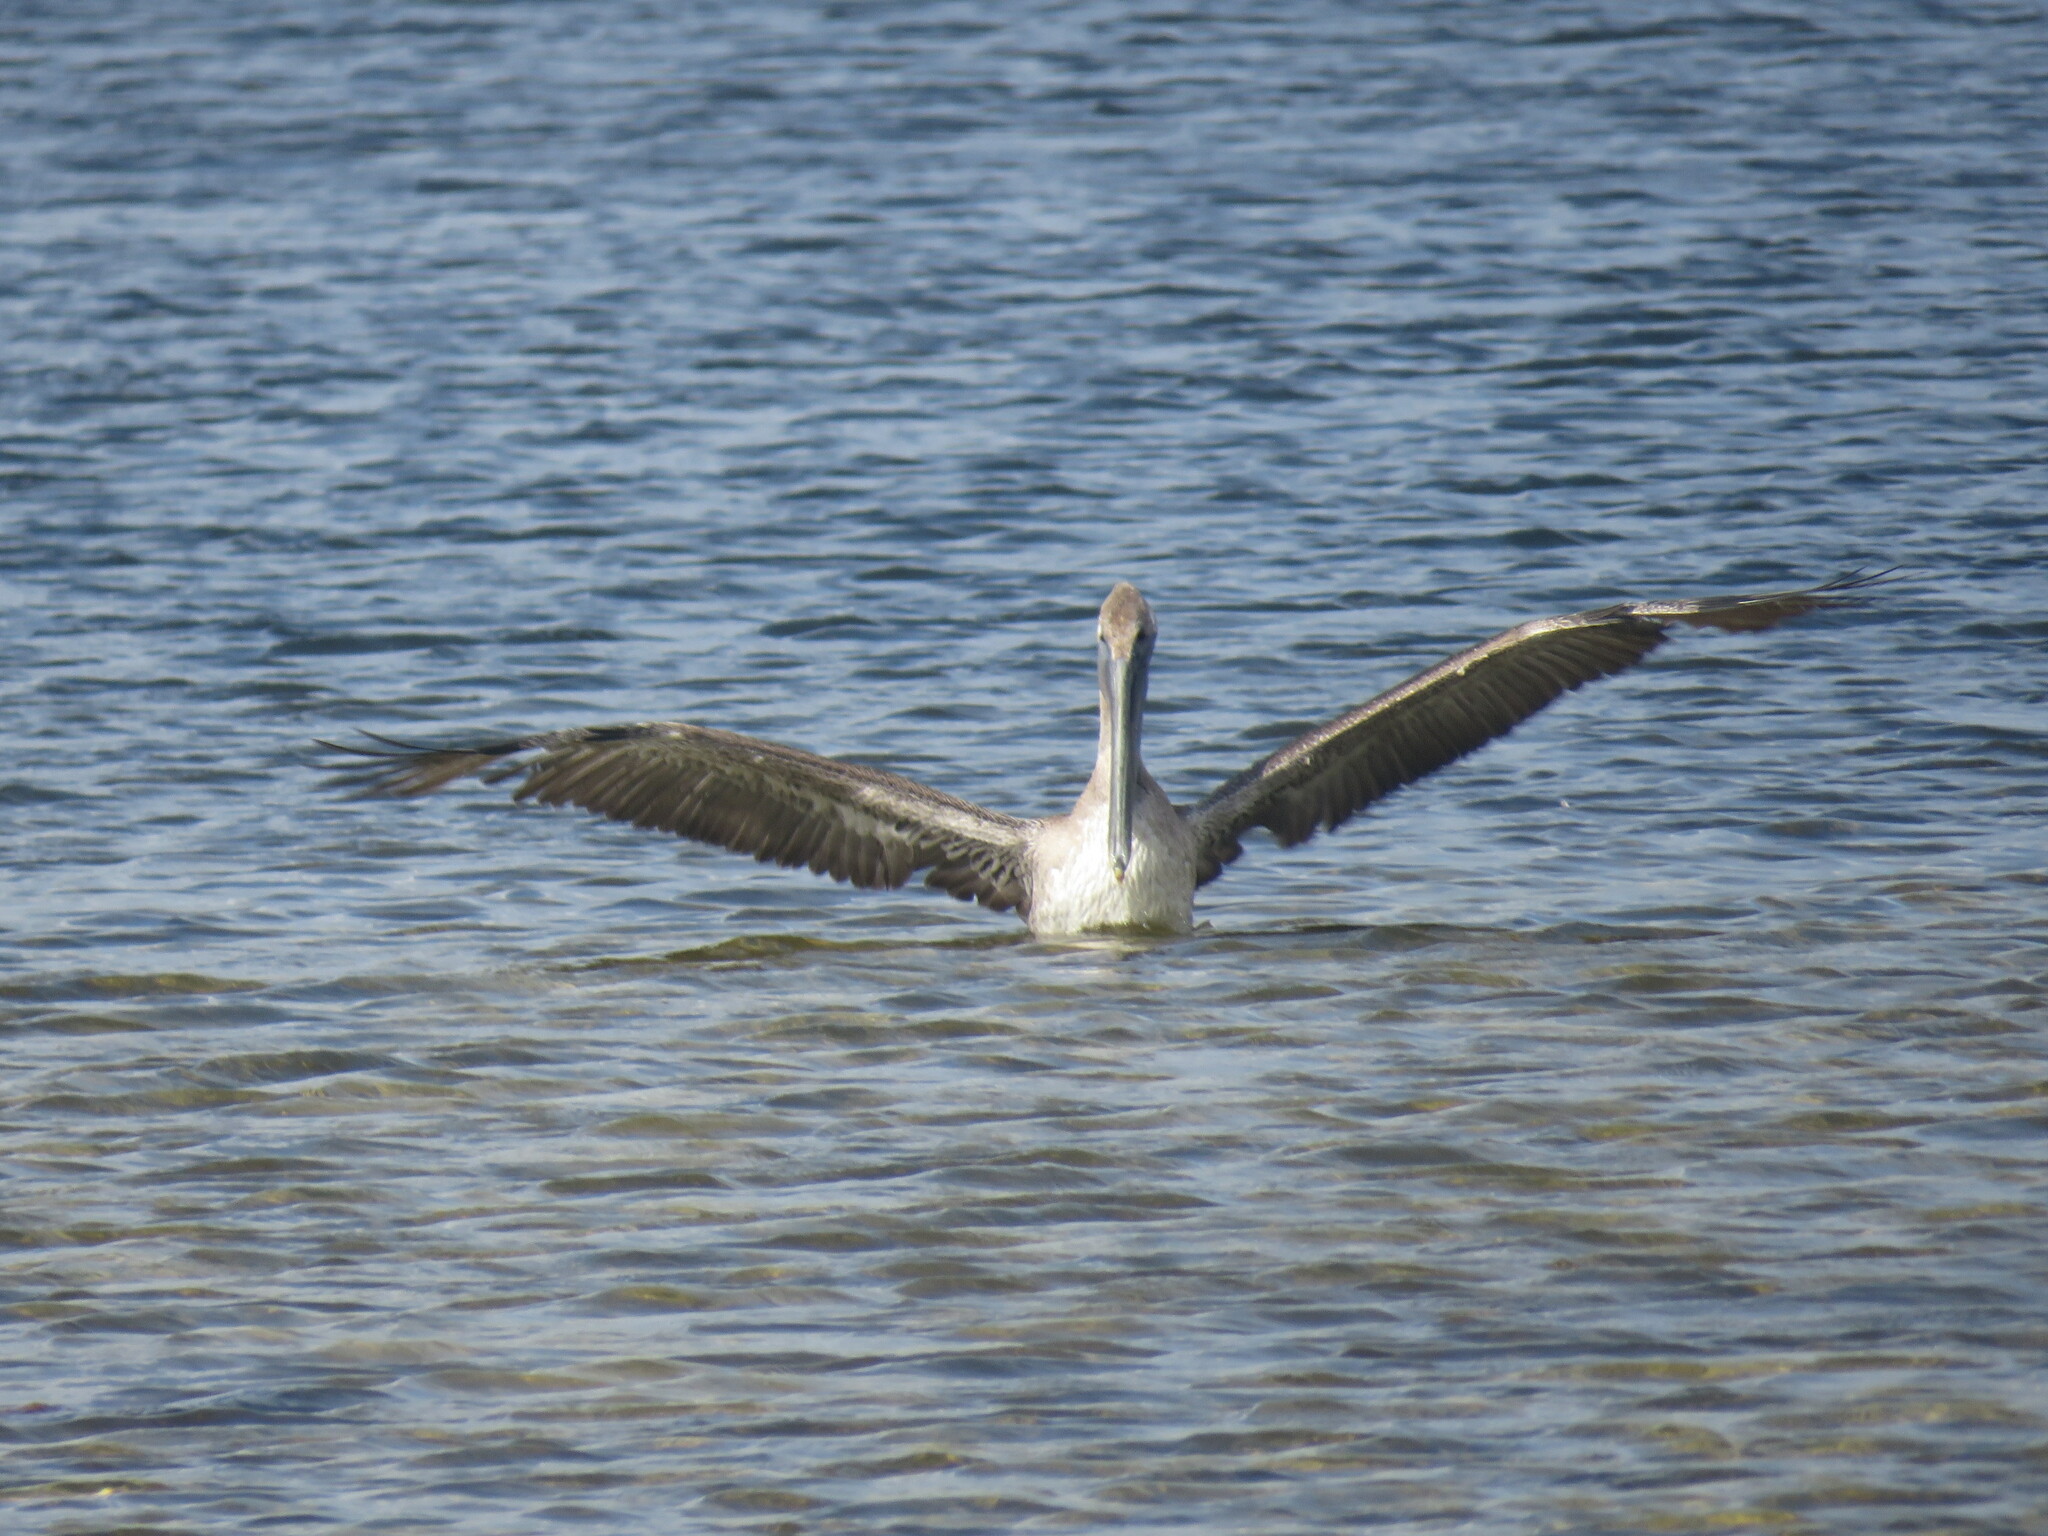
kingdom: Animalia
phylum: Chordata
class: Aves
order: Pelecaniformes
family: Pelecanidae
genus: Pelecanus
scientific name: Pelecanus occidentalis
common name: Brown pelican
